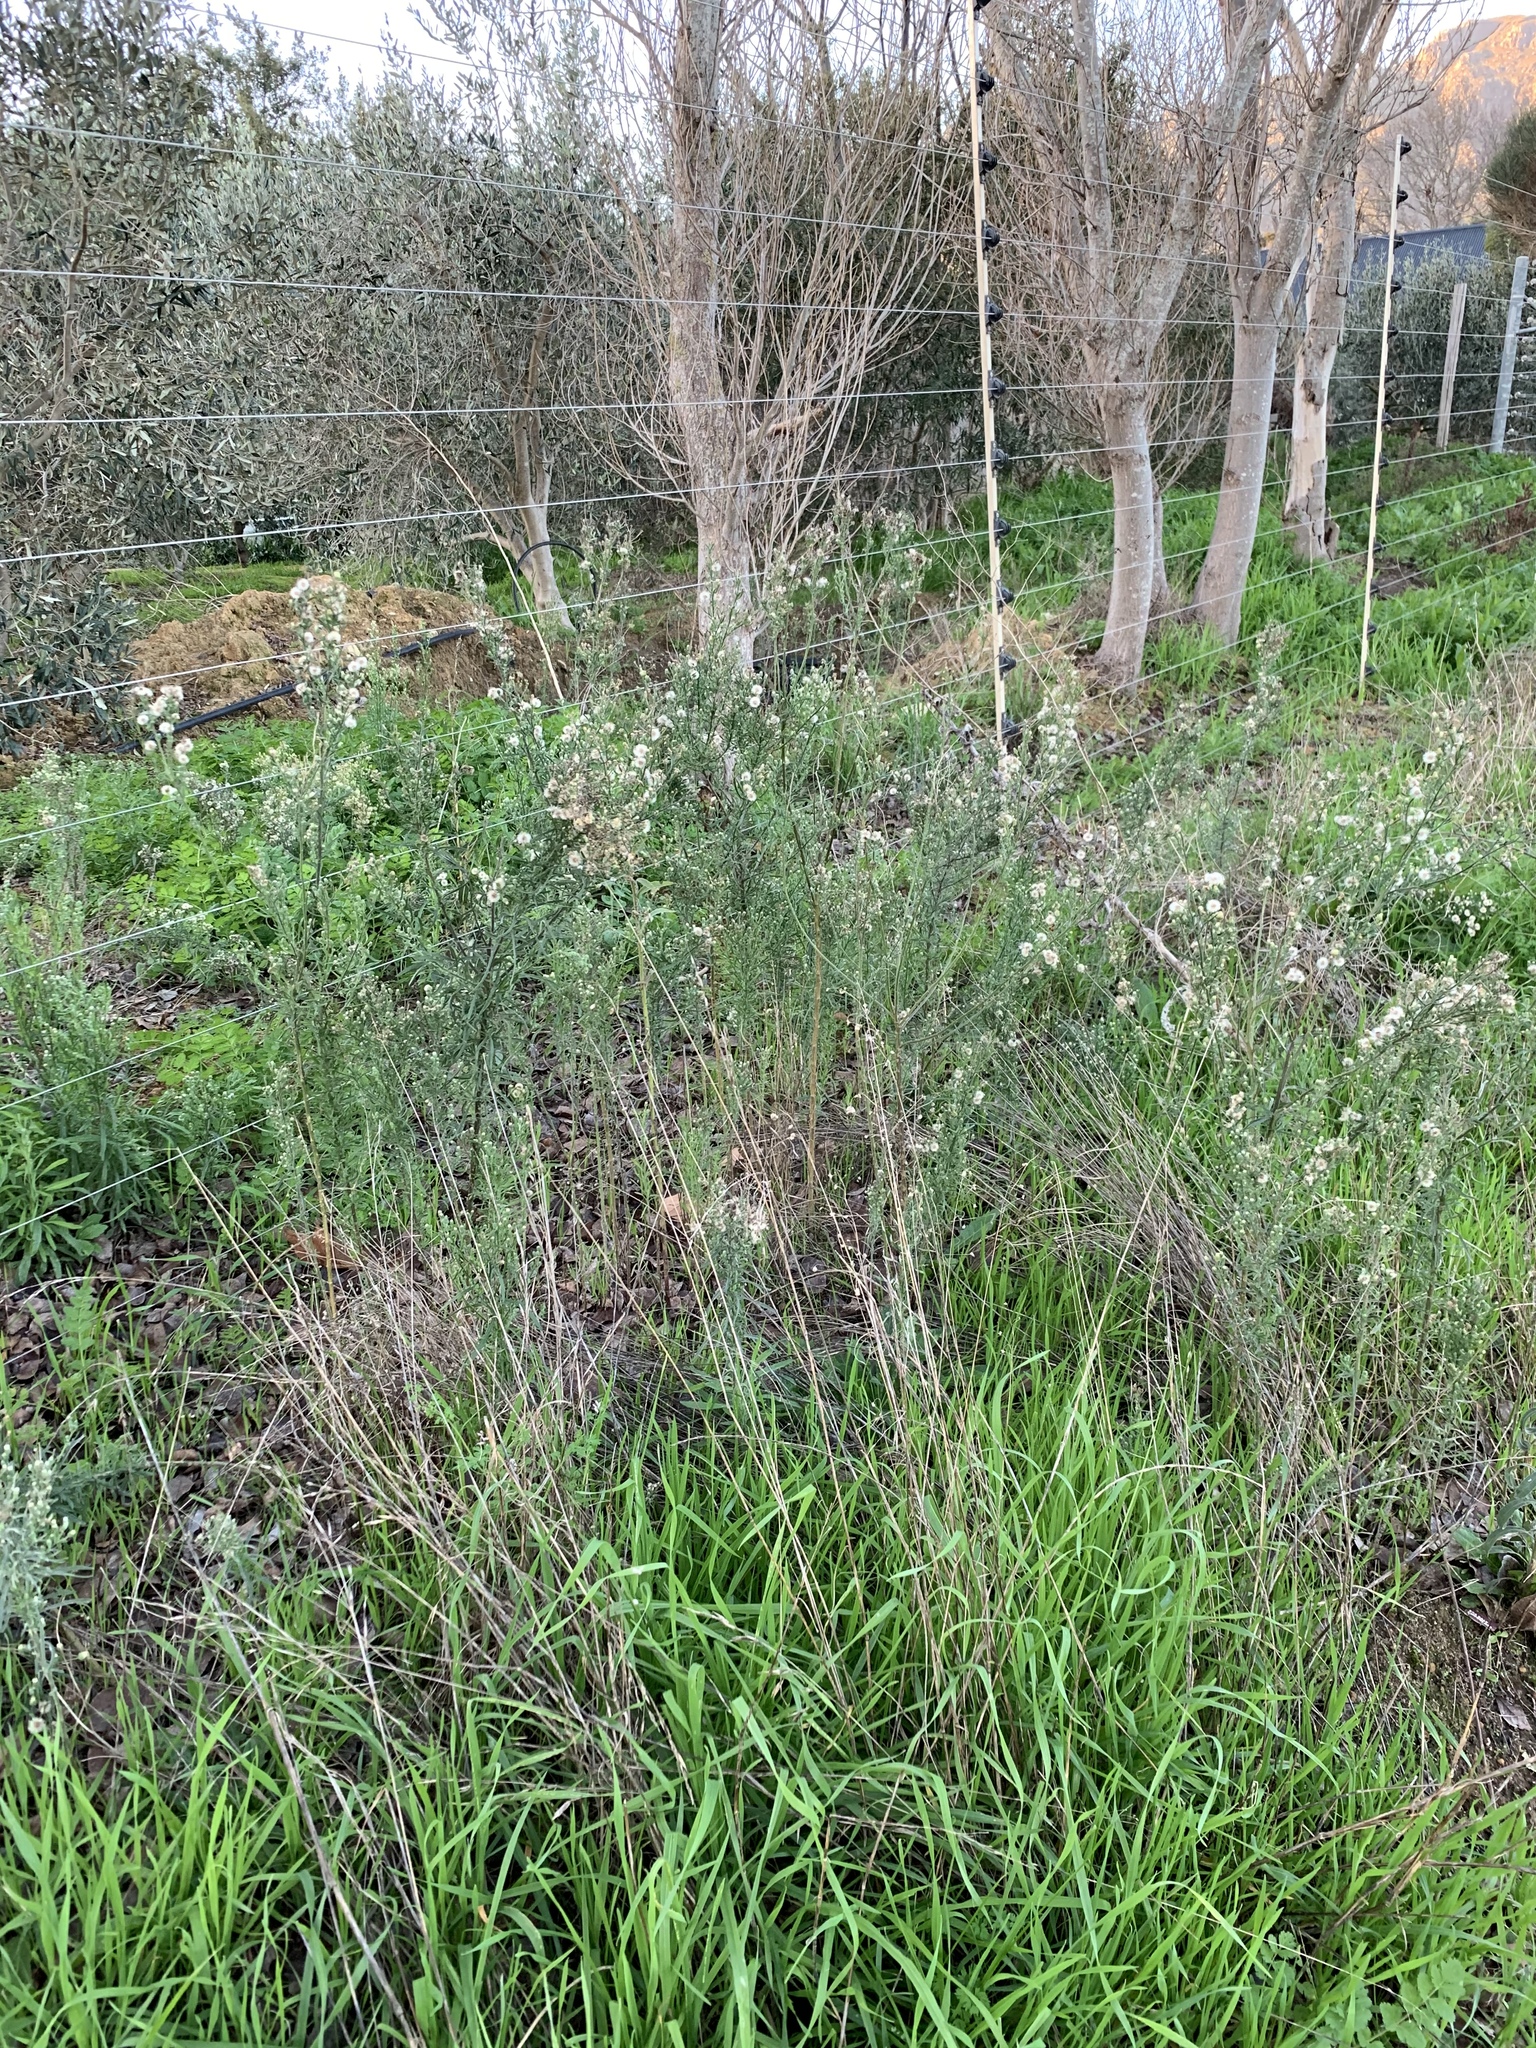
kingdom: Plantae
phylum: Tracheophyta
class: Magnoliopsida
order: Asterales
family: Asteraceae
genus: Erigeron
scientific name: Erigeron bonariensis
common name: Argentine fleabane
